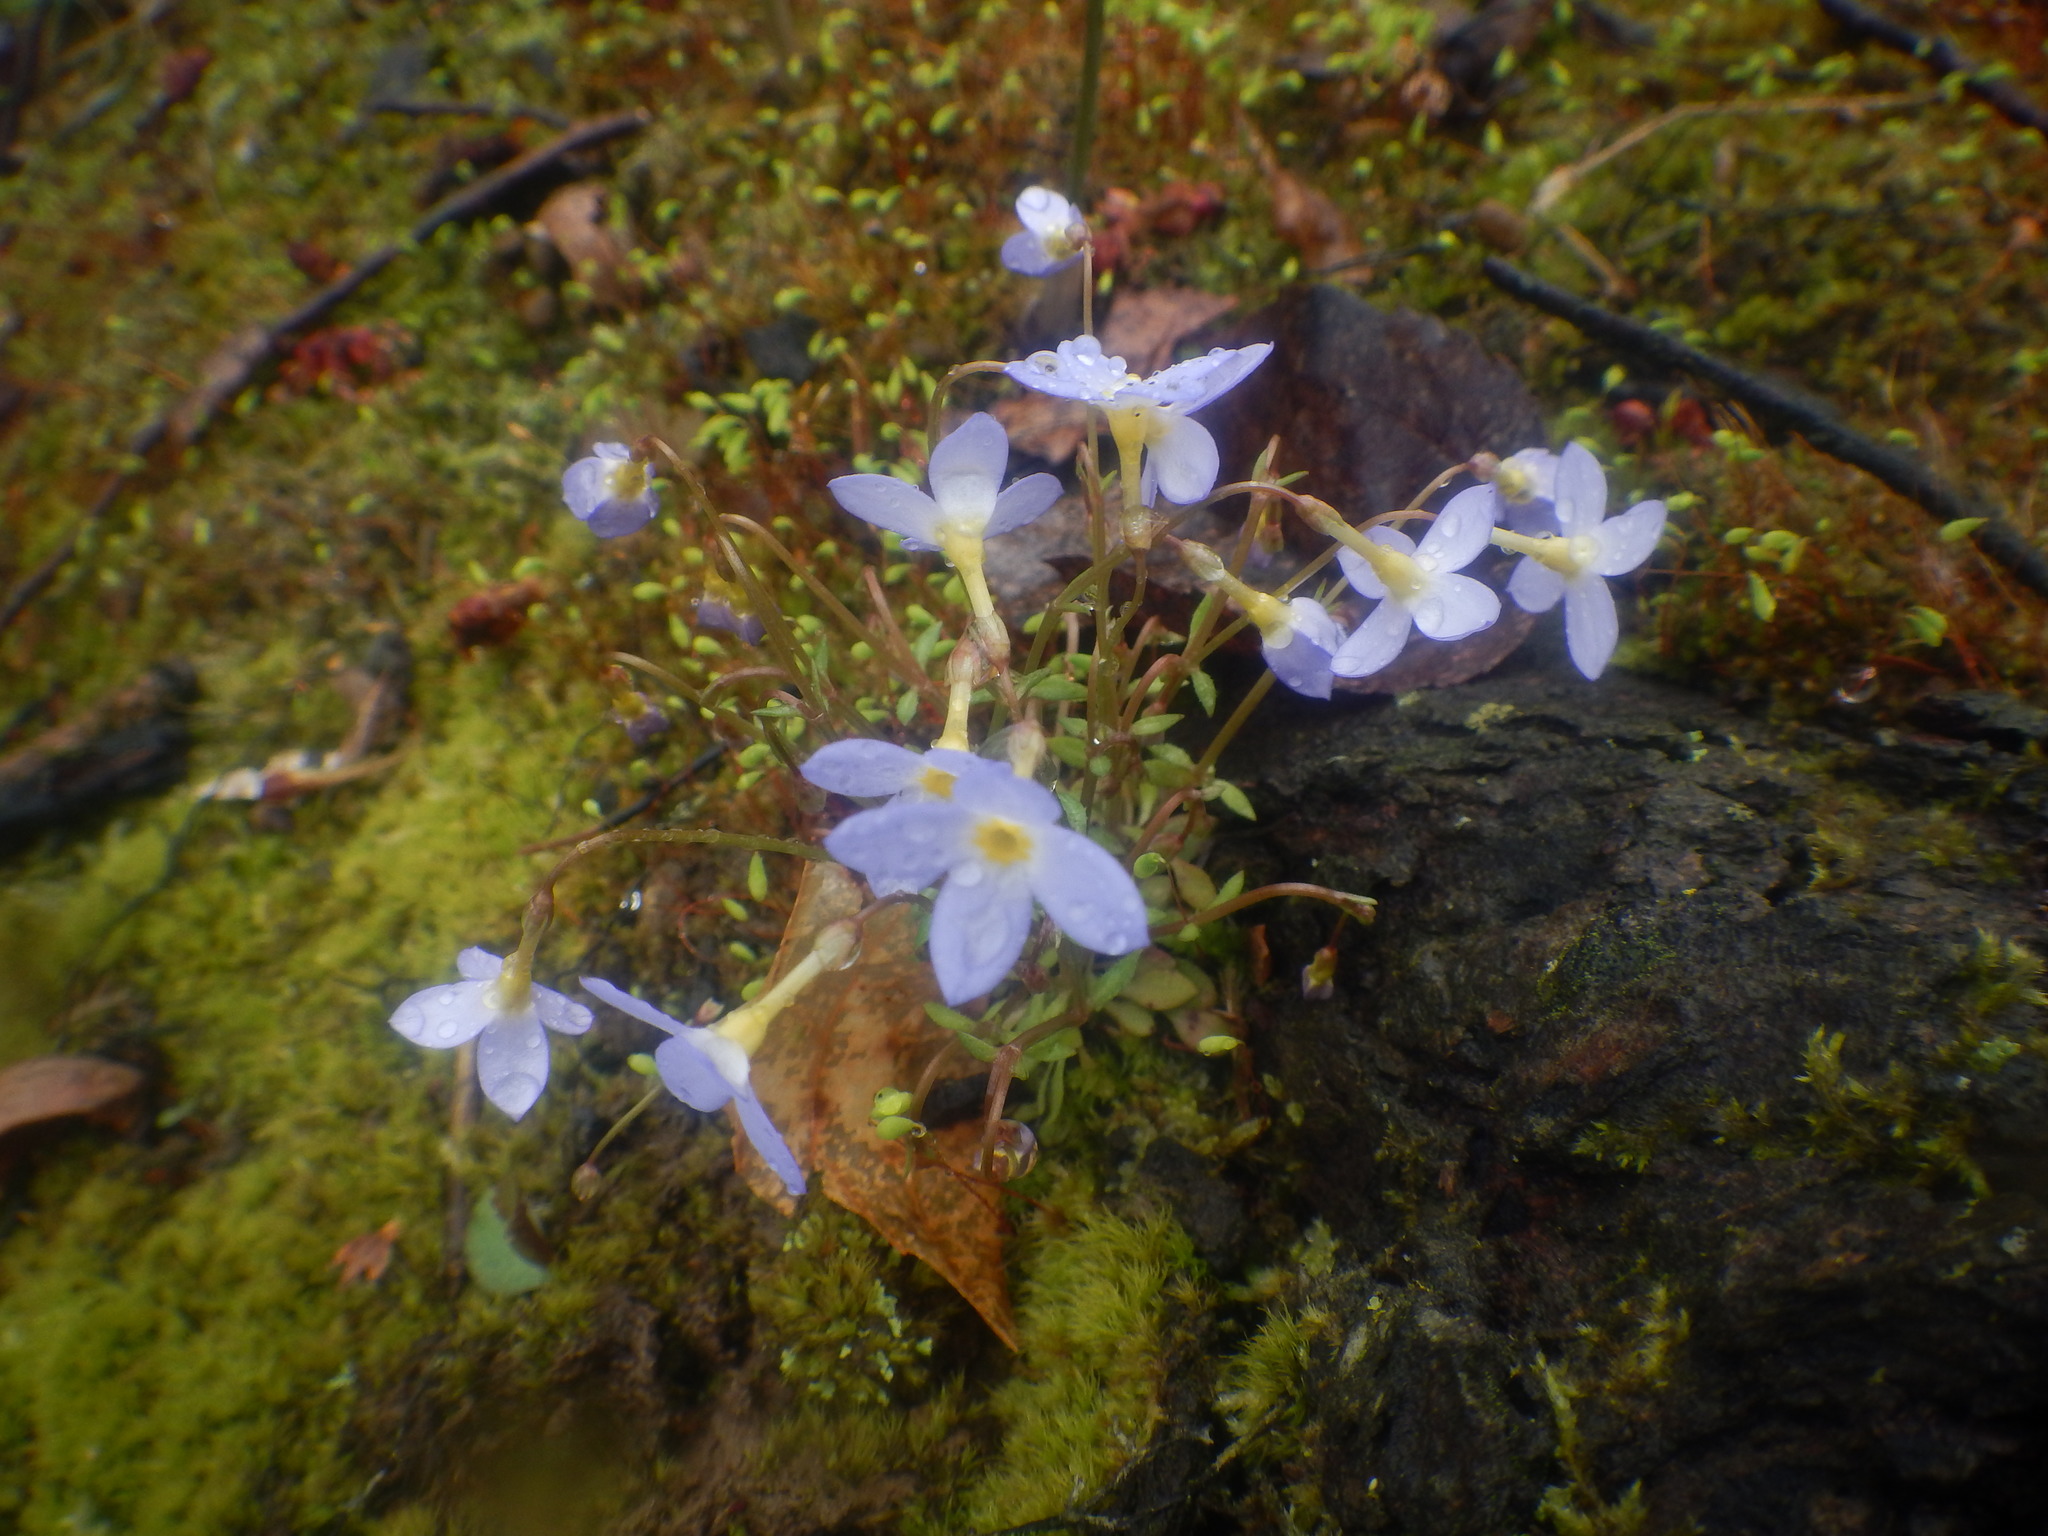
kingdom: Plantae
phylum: Tracheophyta
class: Magnoliopsida
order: Gentianales
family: Rubiaceae
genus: Houstonia
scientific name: Houstonia caerulea
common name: Bluets
